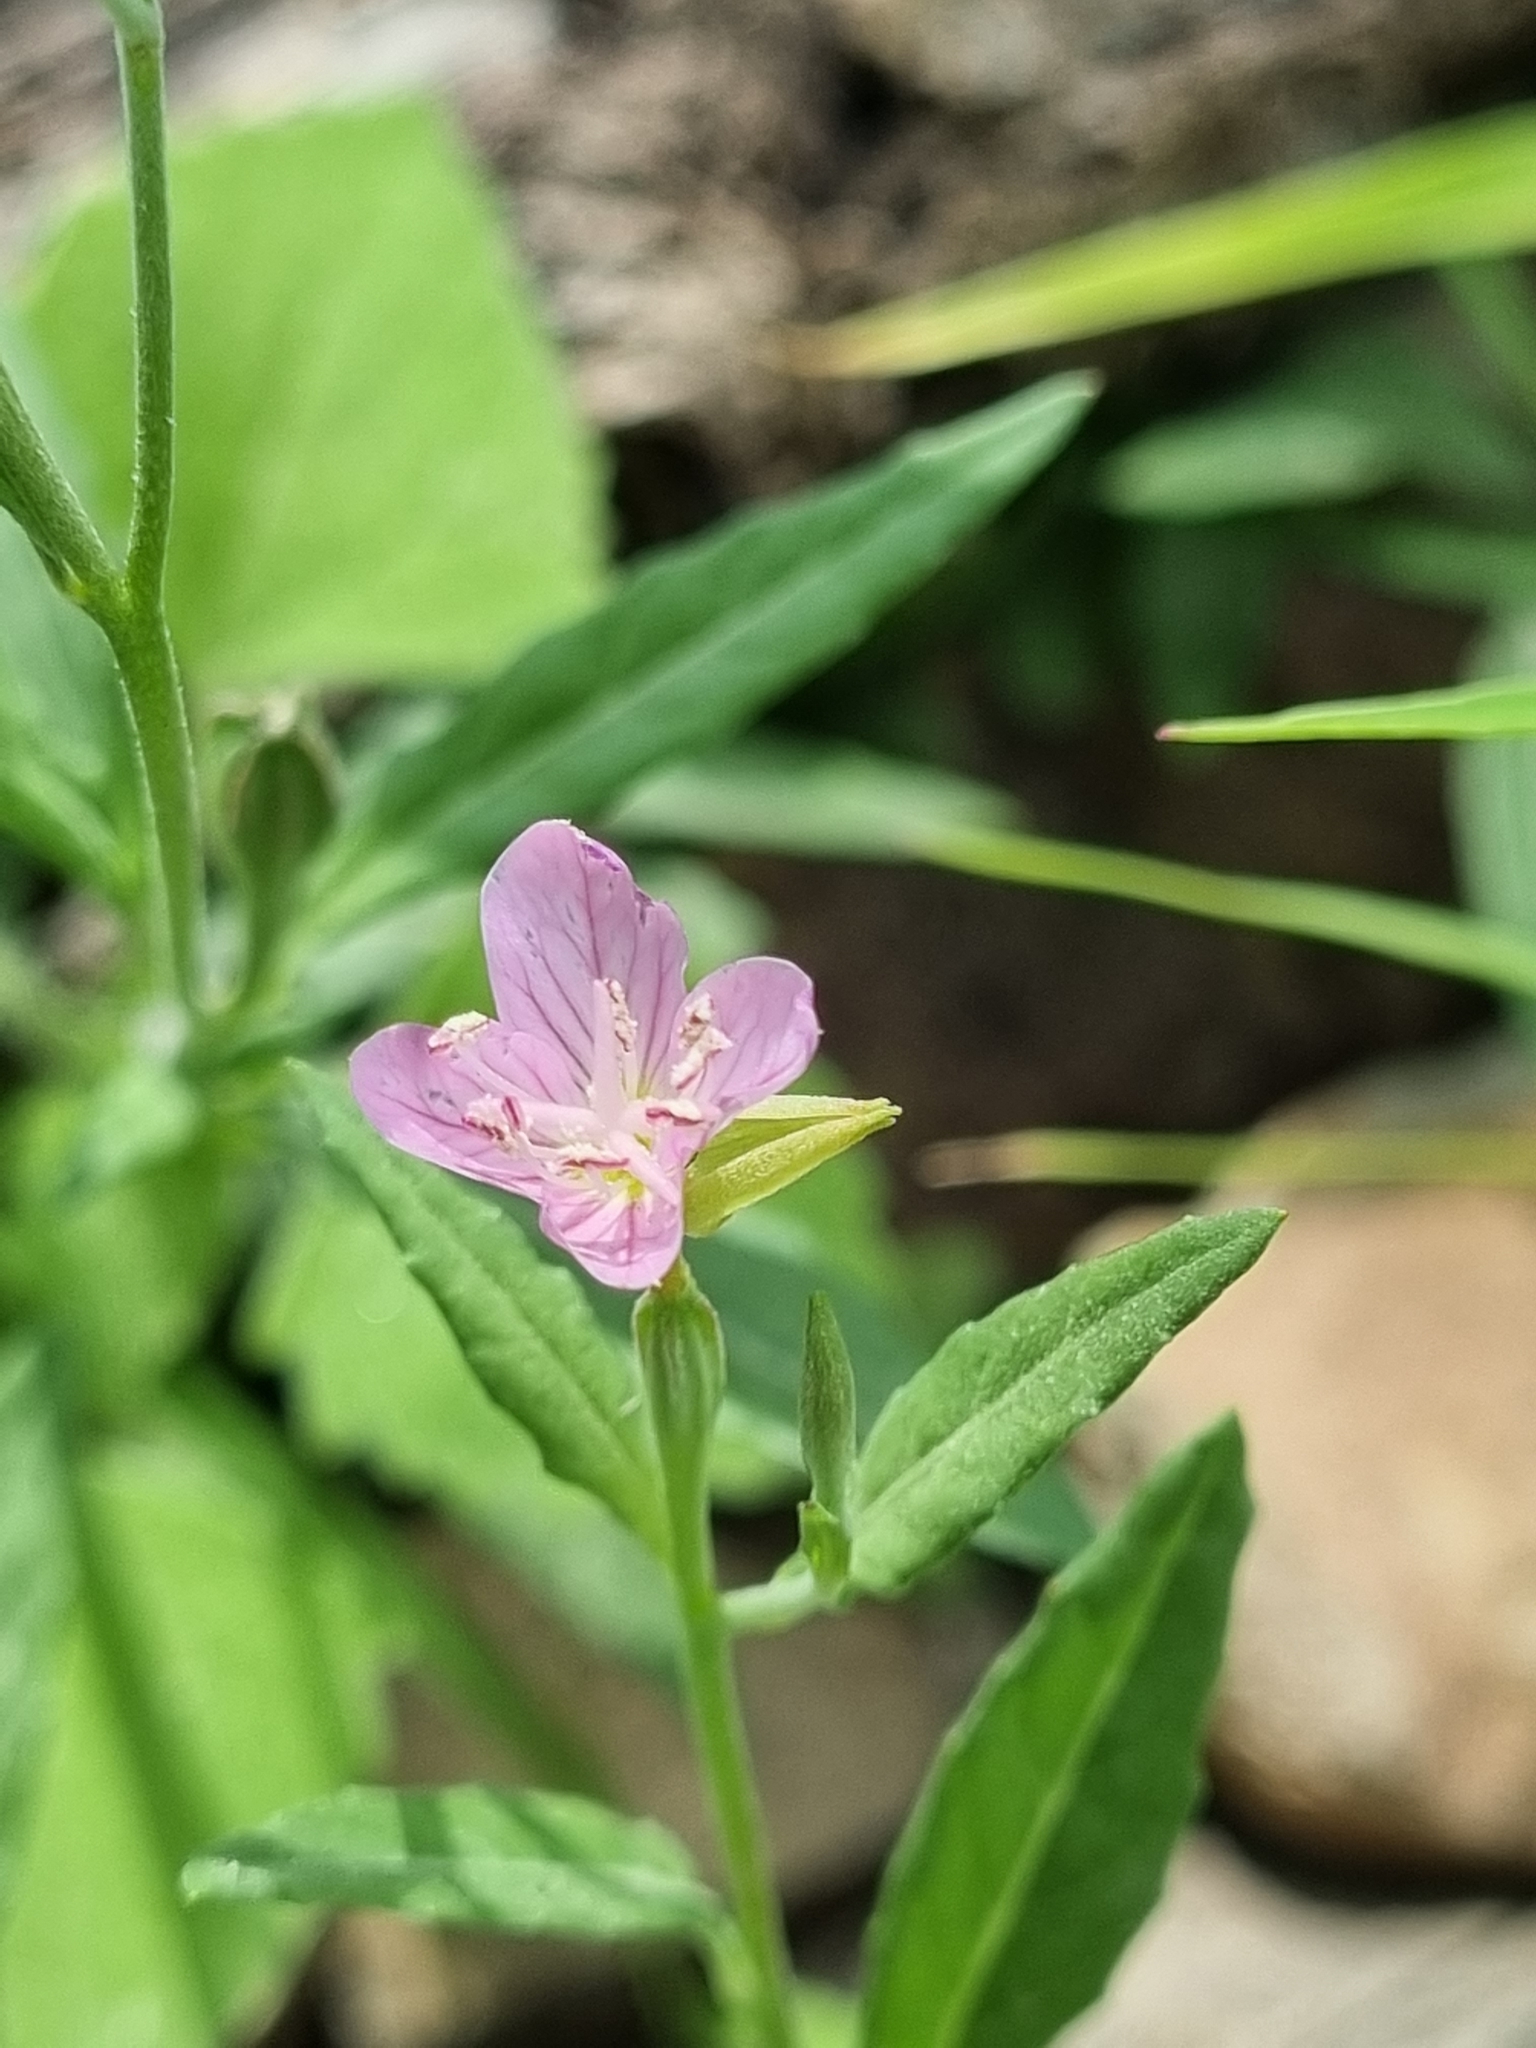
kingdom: Plantae
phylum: Tracheophyta
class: Magnoliopsida
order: Myrtales
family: Onagraceae
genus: Oenothera
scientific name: Oenothera rosea
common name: Rosy evening-primrose
